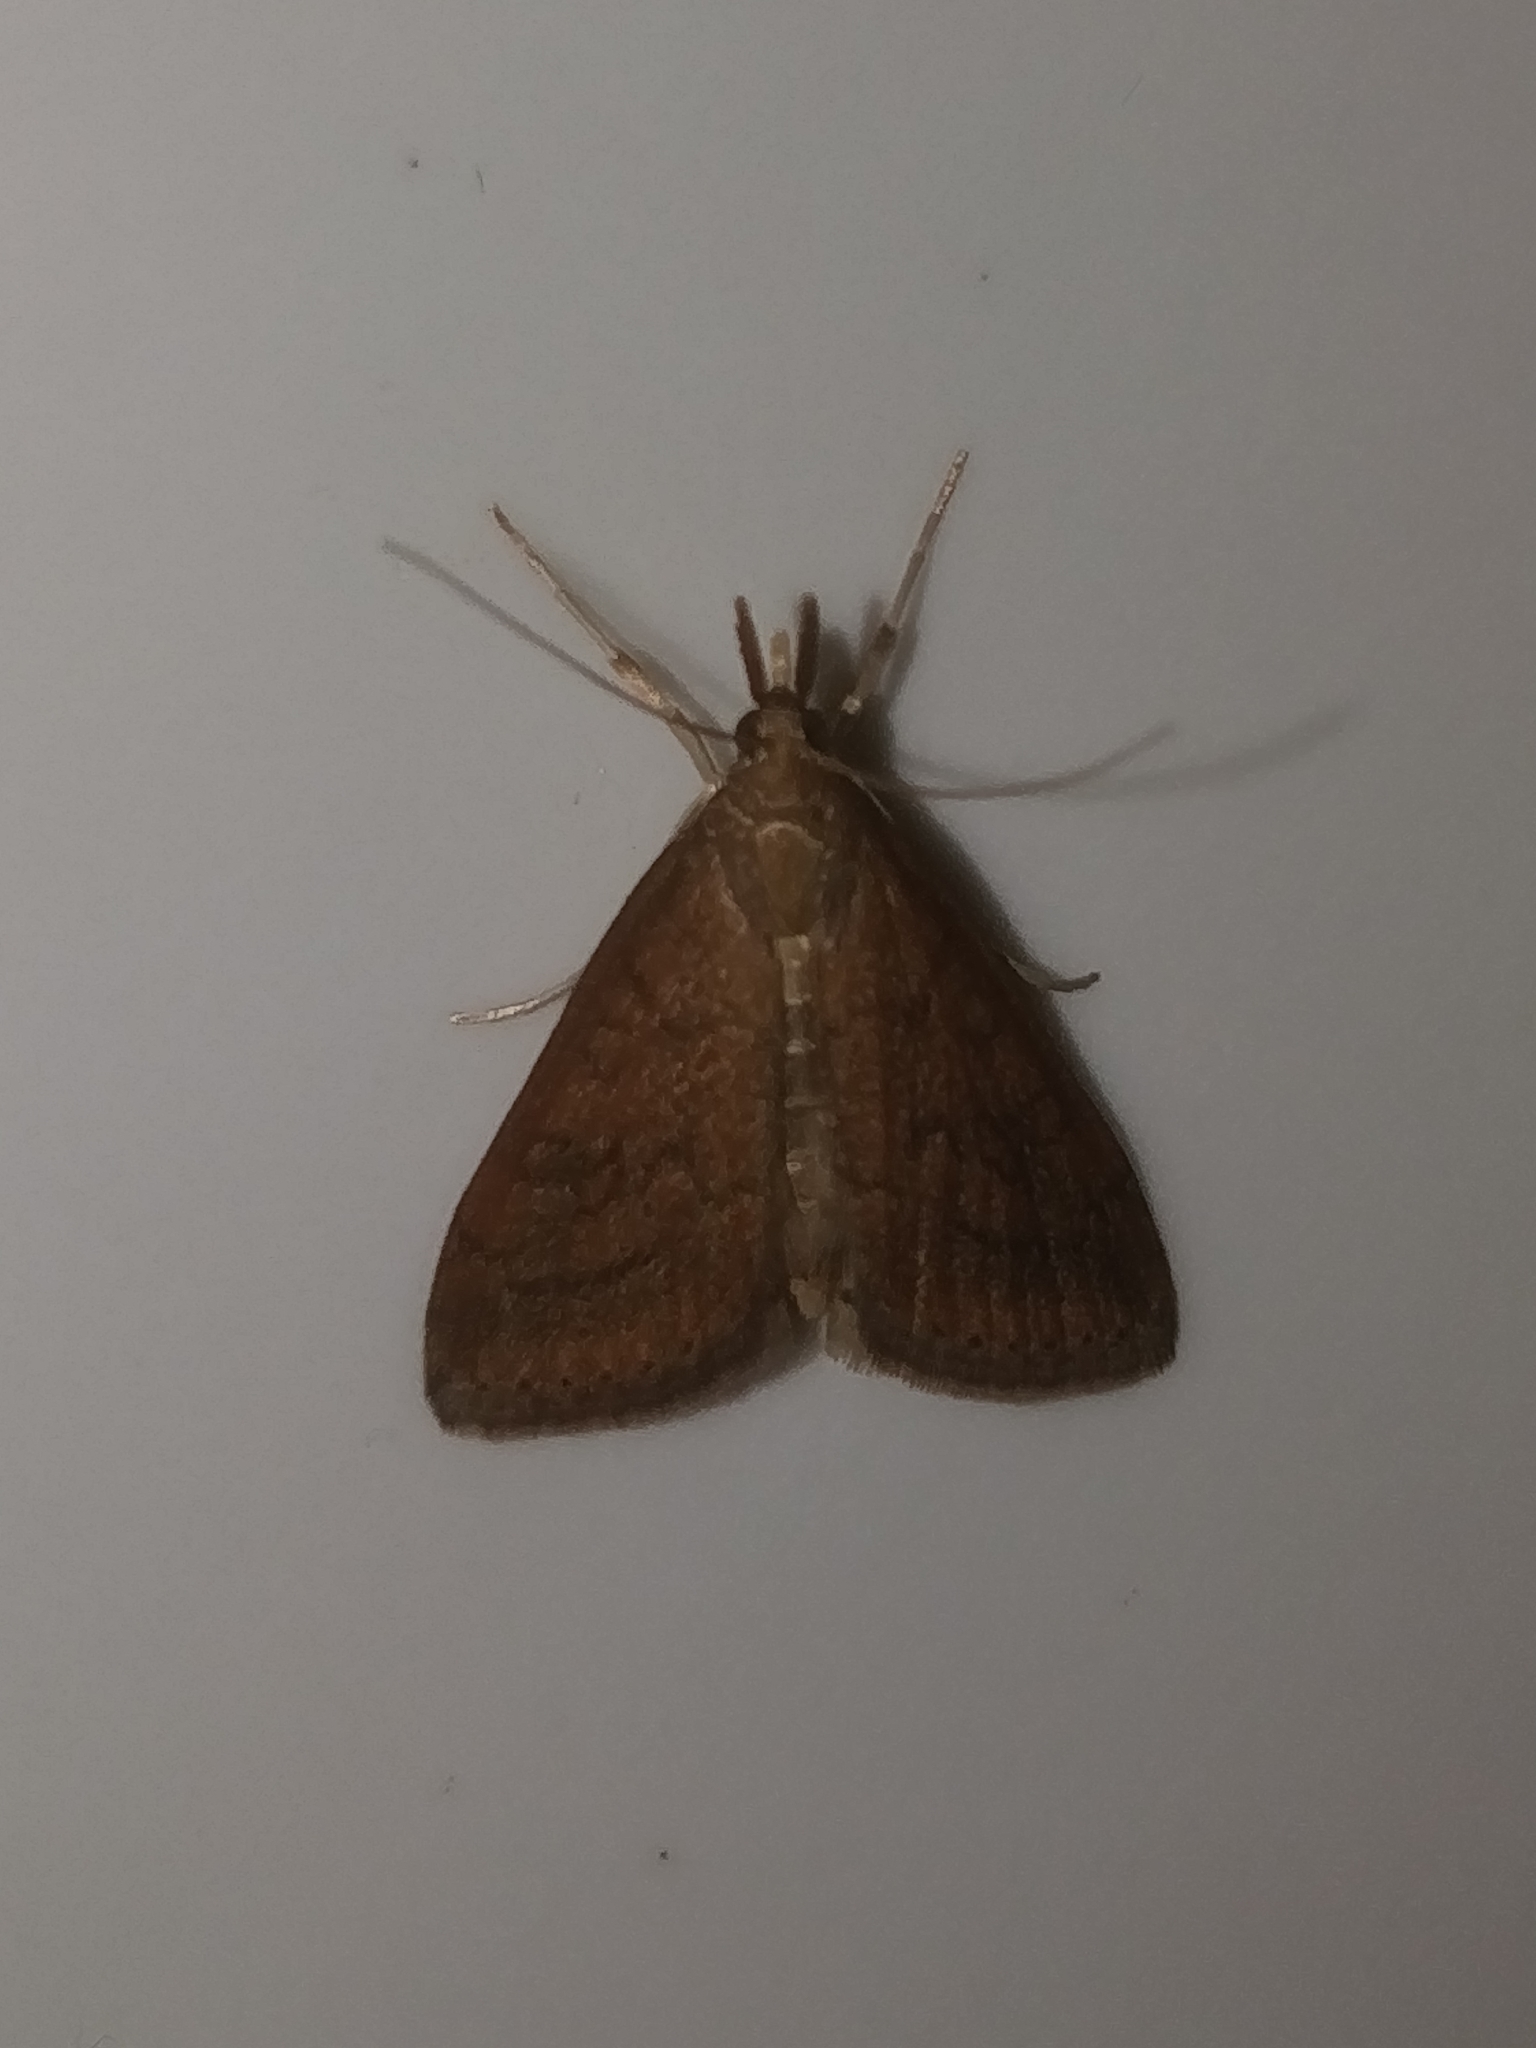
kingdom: Animalia
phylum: Arthropoda
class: Insecta
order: Lepidoptera
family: Crambidae
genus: Udea
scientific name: Udea rubigalis
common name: Celery leaftier moth
